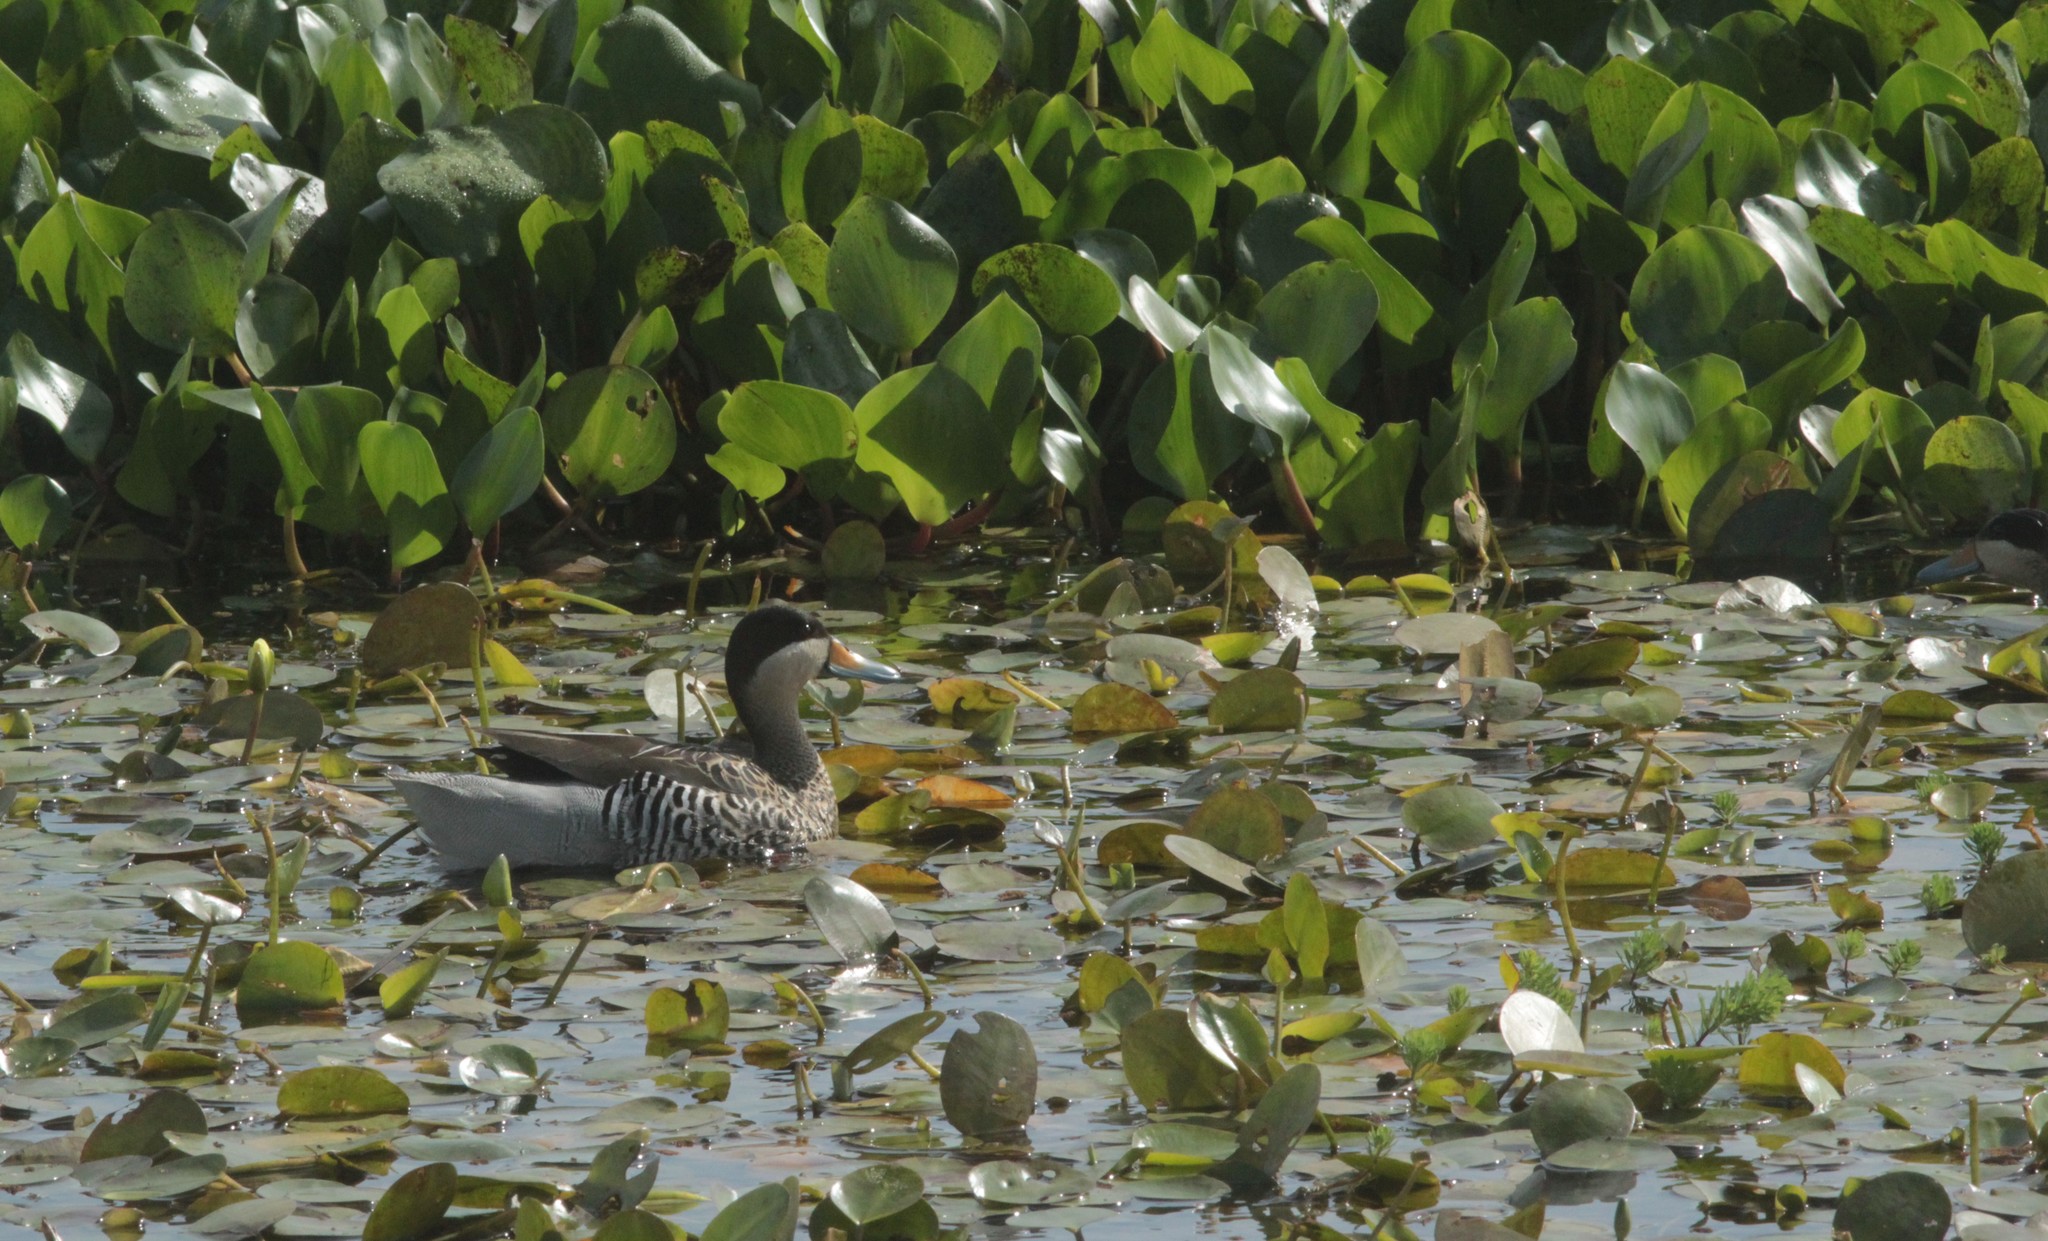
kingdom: Animalia
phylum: Chordata
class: Aves
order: Anseriformes
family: Anatidae
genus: Spatula
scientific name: Spatula versicolor
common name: Silver teal
